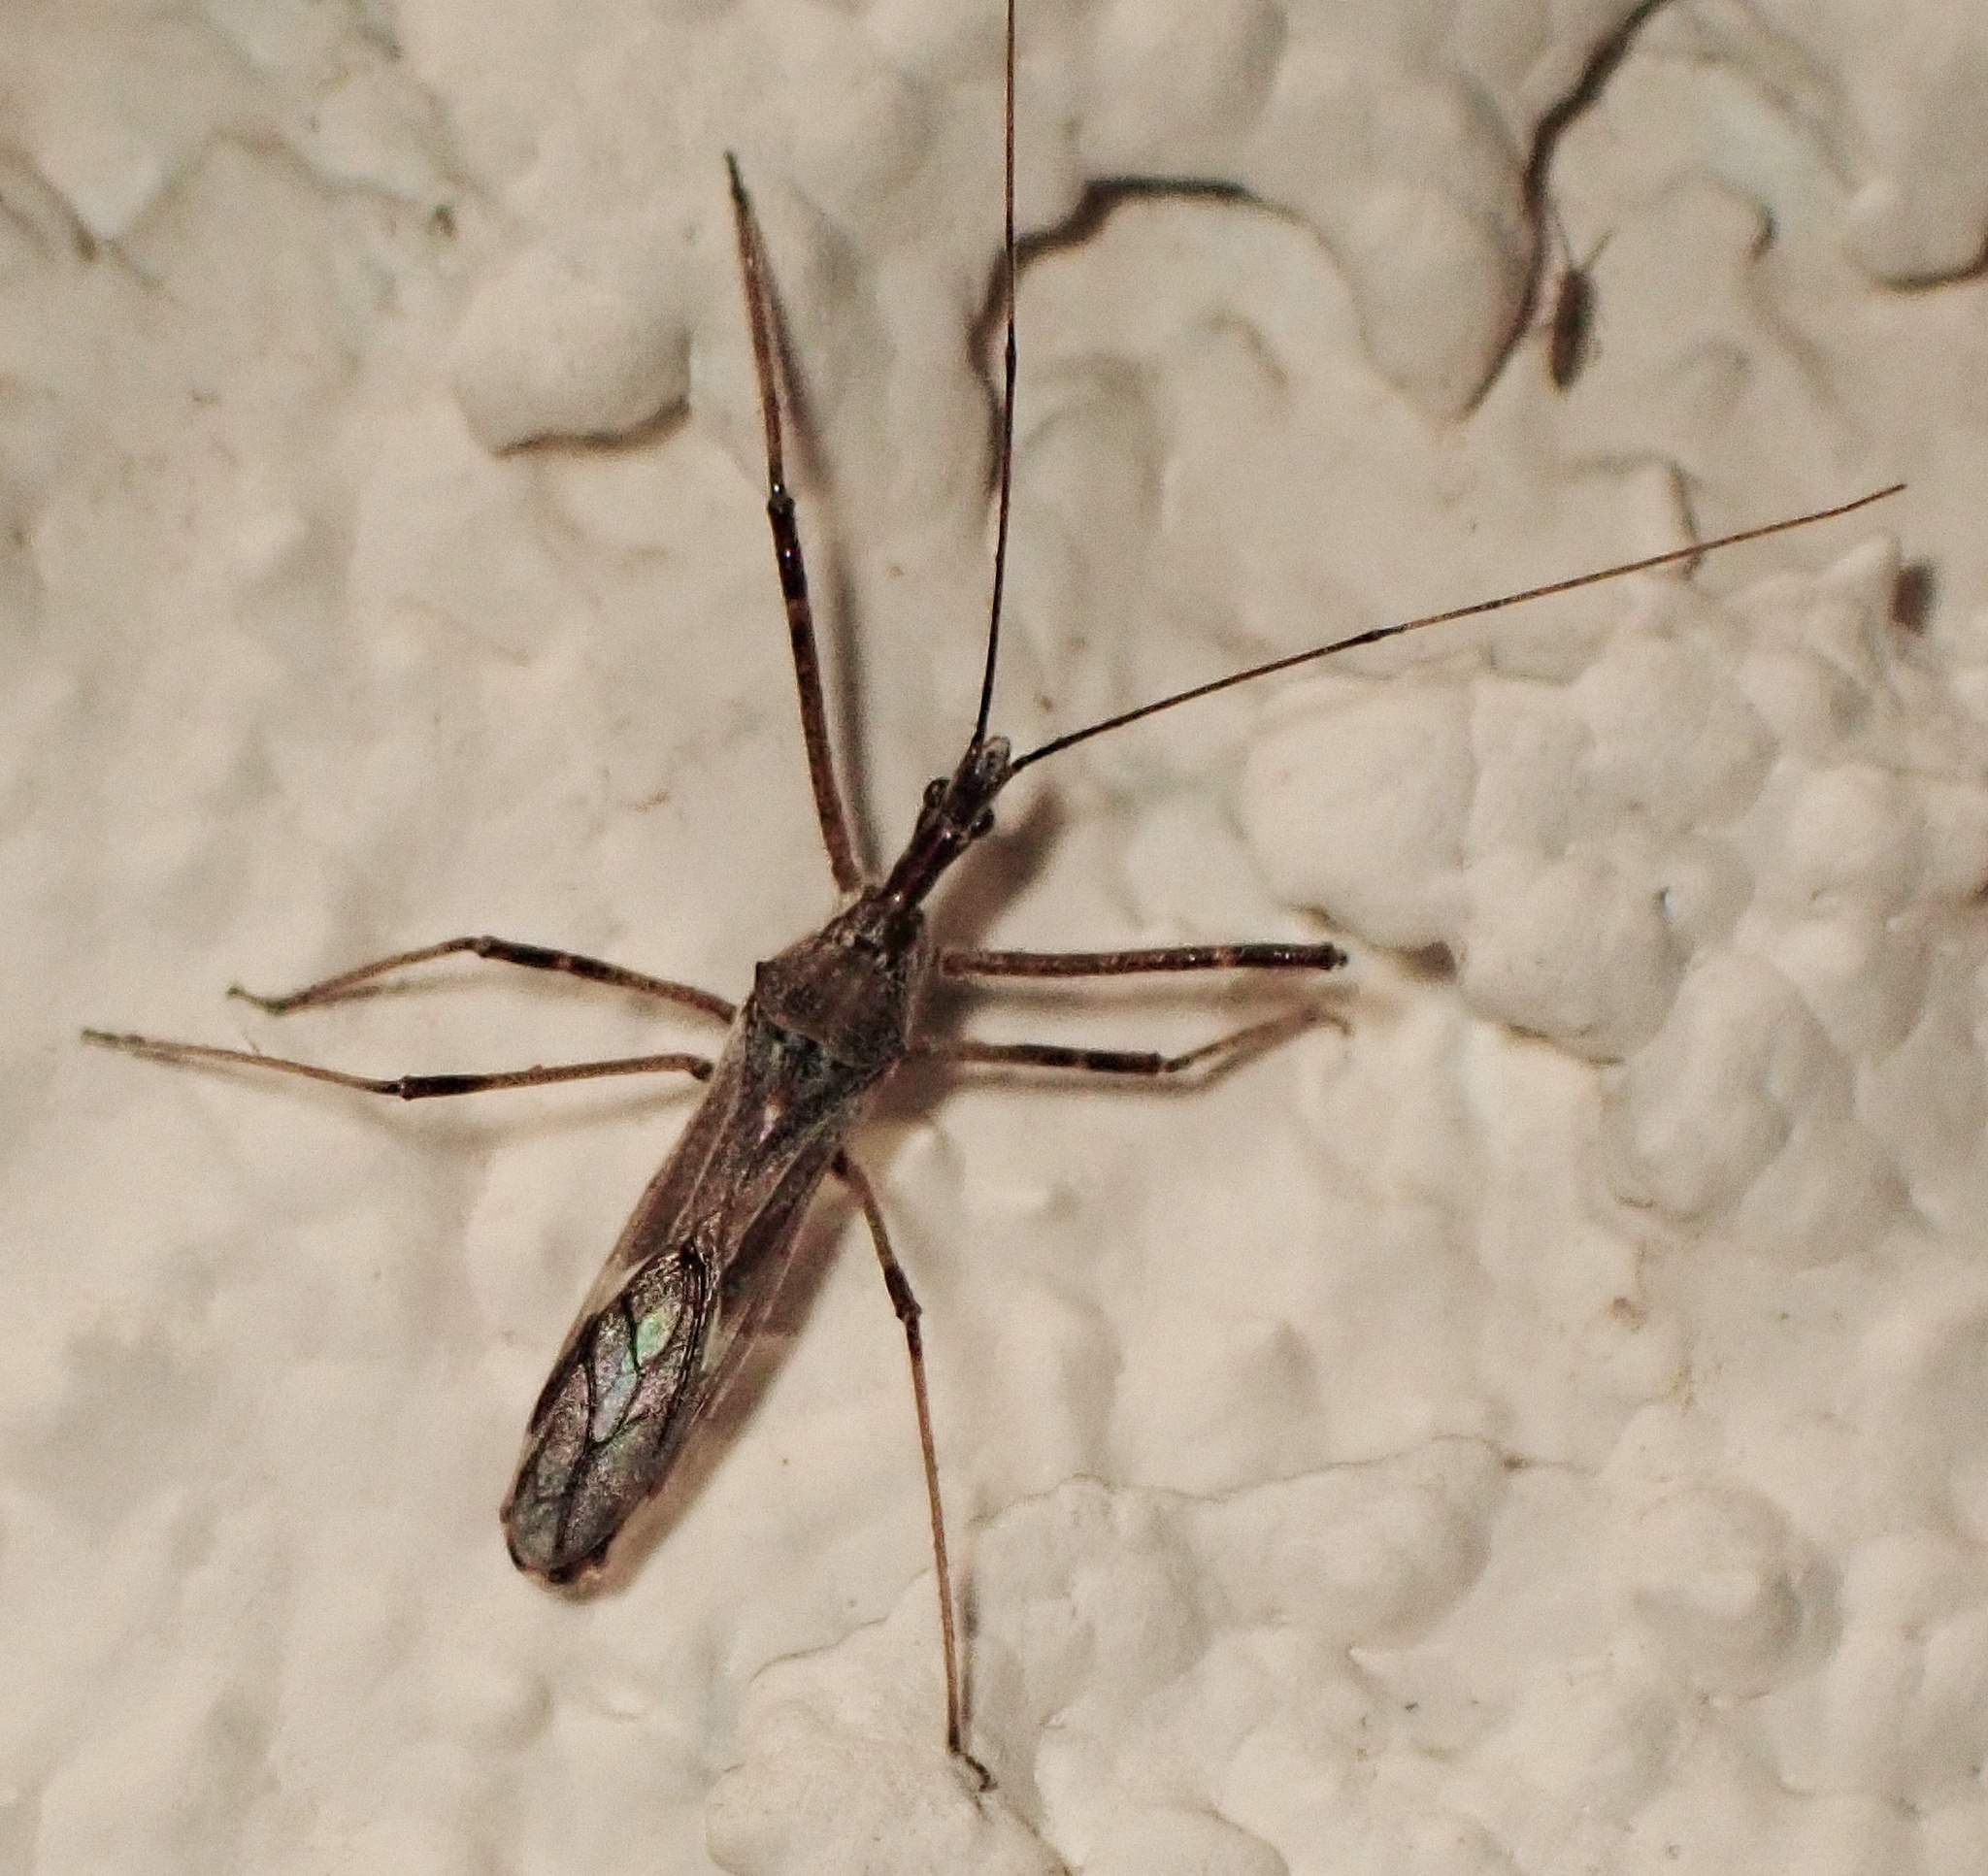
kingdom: Animalia
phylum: Arthropoda
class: Insecta
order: Hemiptera
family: Reduviidae
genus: Zelus
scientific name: Zelus tetracanthus
